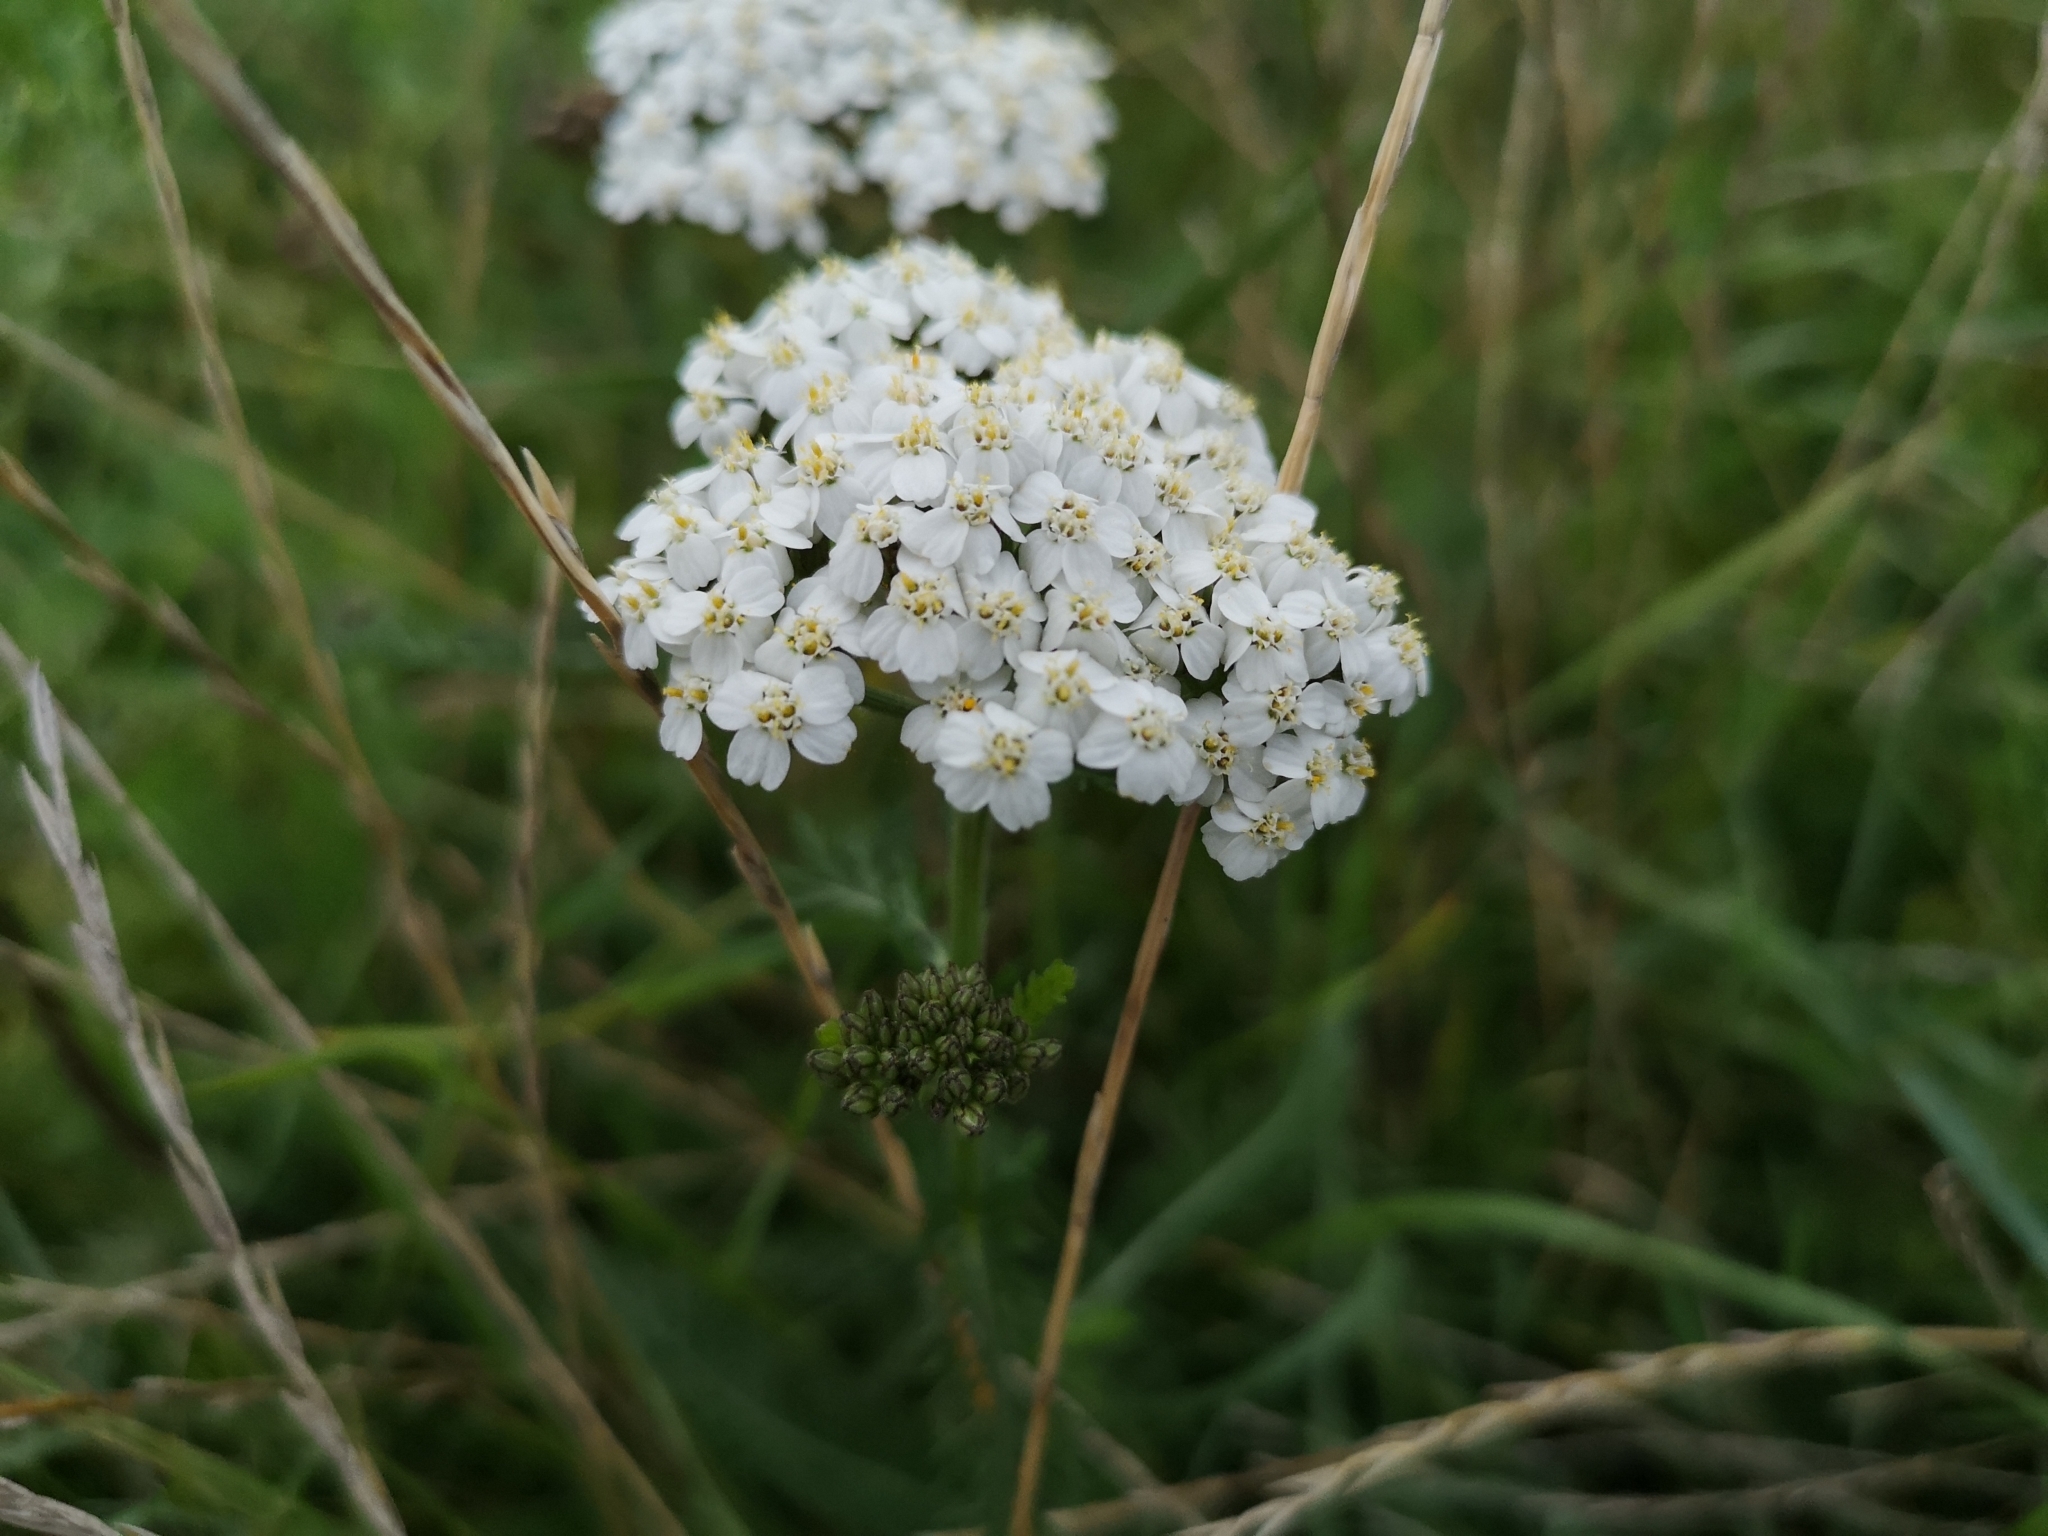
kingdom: Plantae
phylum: Tracheophyta
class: Magnoliopsida
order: Asterales
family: Asteraceae
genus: Achillea
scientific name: Achillea millefolium
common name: Yarrow
